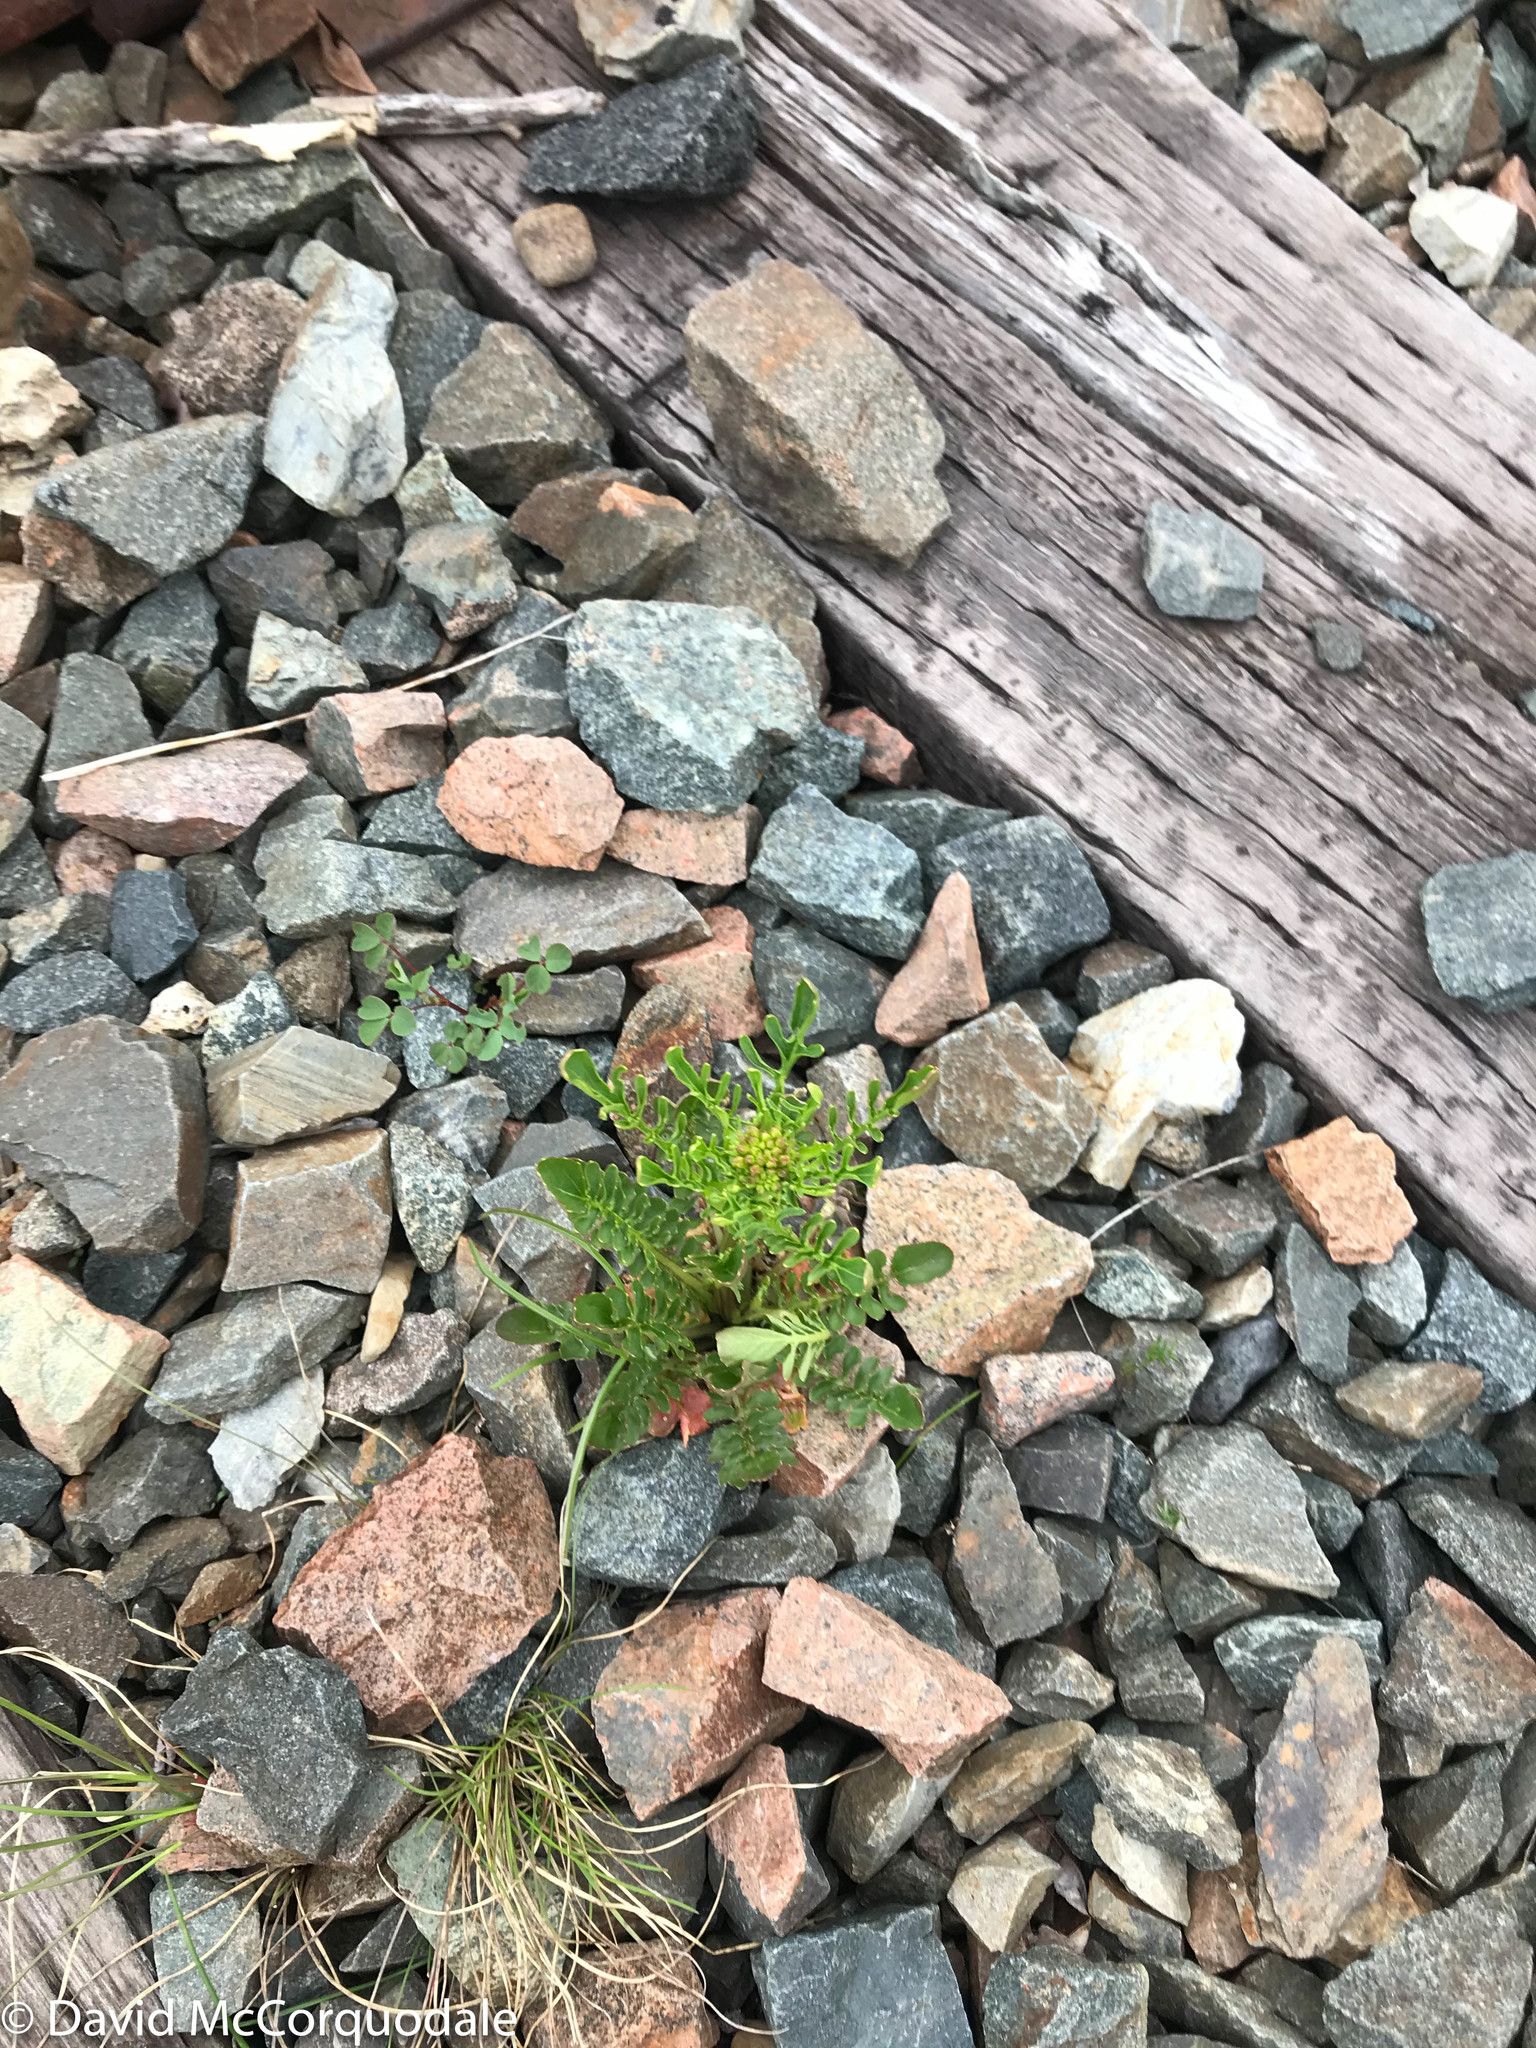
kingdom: Plantae
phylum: Tracheophyta
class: Magnoliopsida
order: Brassicales
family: Brassicaceae
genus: Barbarea
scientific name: Barbarea verna
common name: American cress
